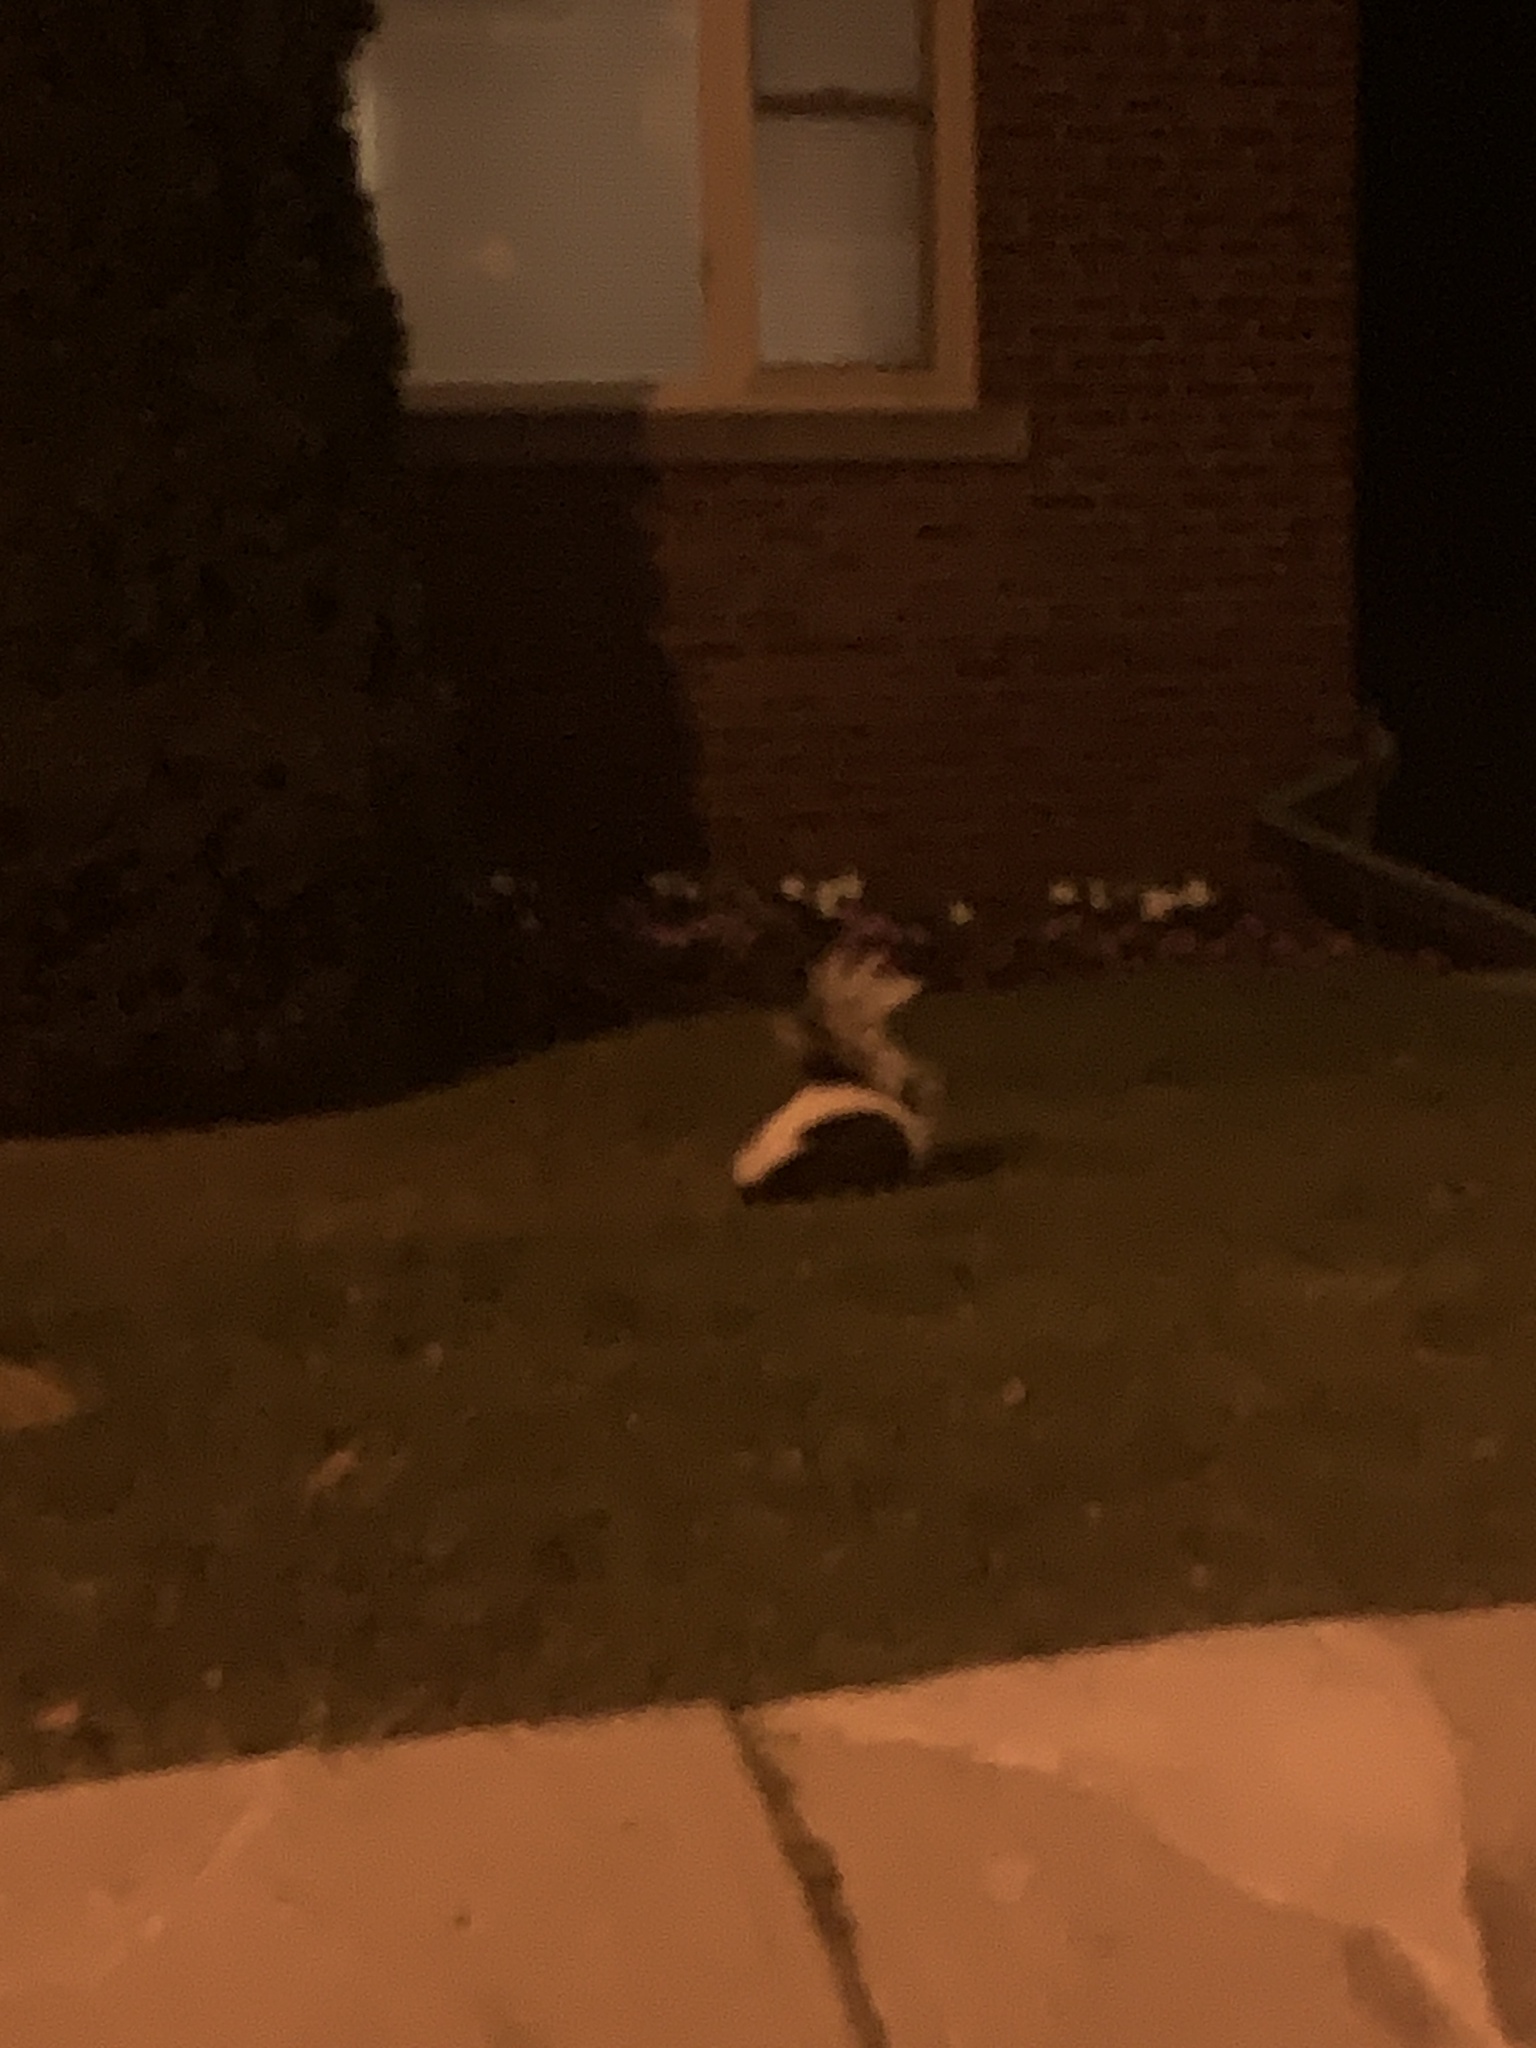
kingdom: Animalia
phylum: Chordata
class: Mammalia
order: Carnivora
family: Mephitidae
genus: Mephitis
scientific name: Mephitis mephitis
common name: Striped skunk
